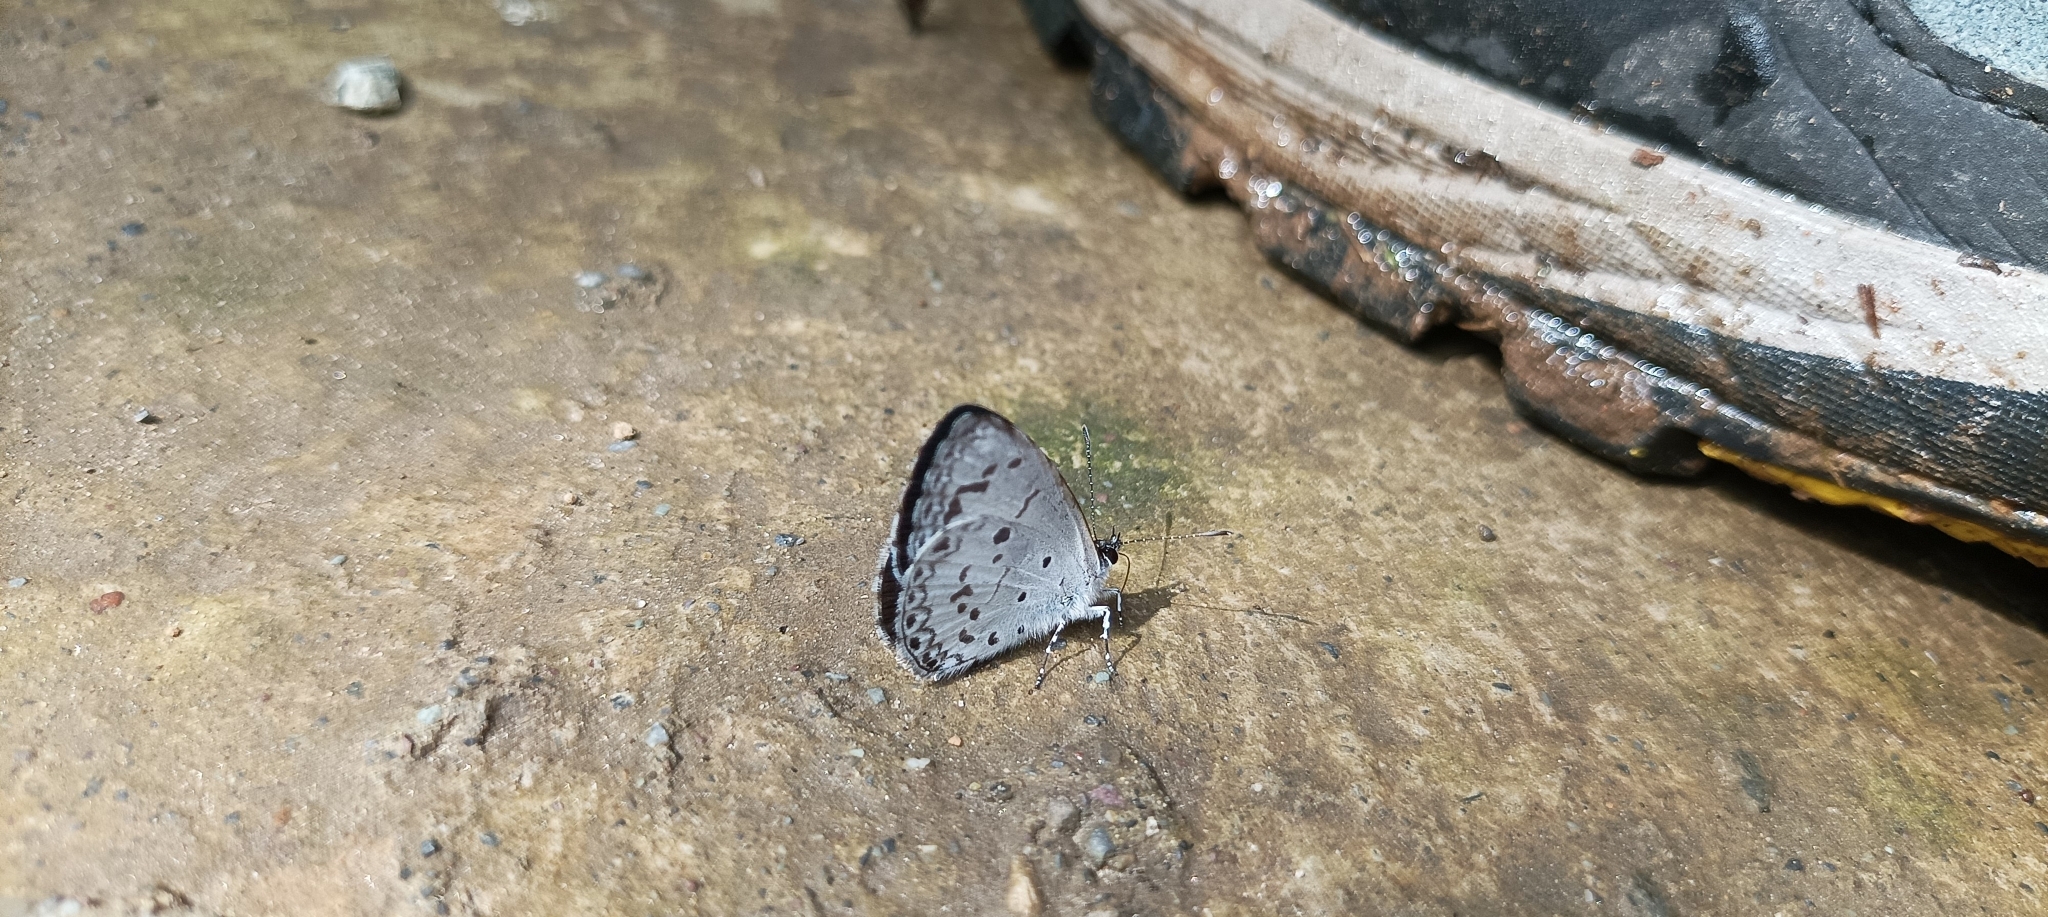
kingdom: Animalia
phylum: Arthropoda
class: Insecta
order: Lepidoptera
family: Lycaenidae
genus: Acytolepis
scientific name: Acytolepis puspa
